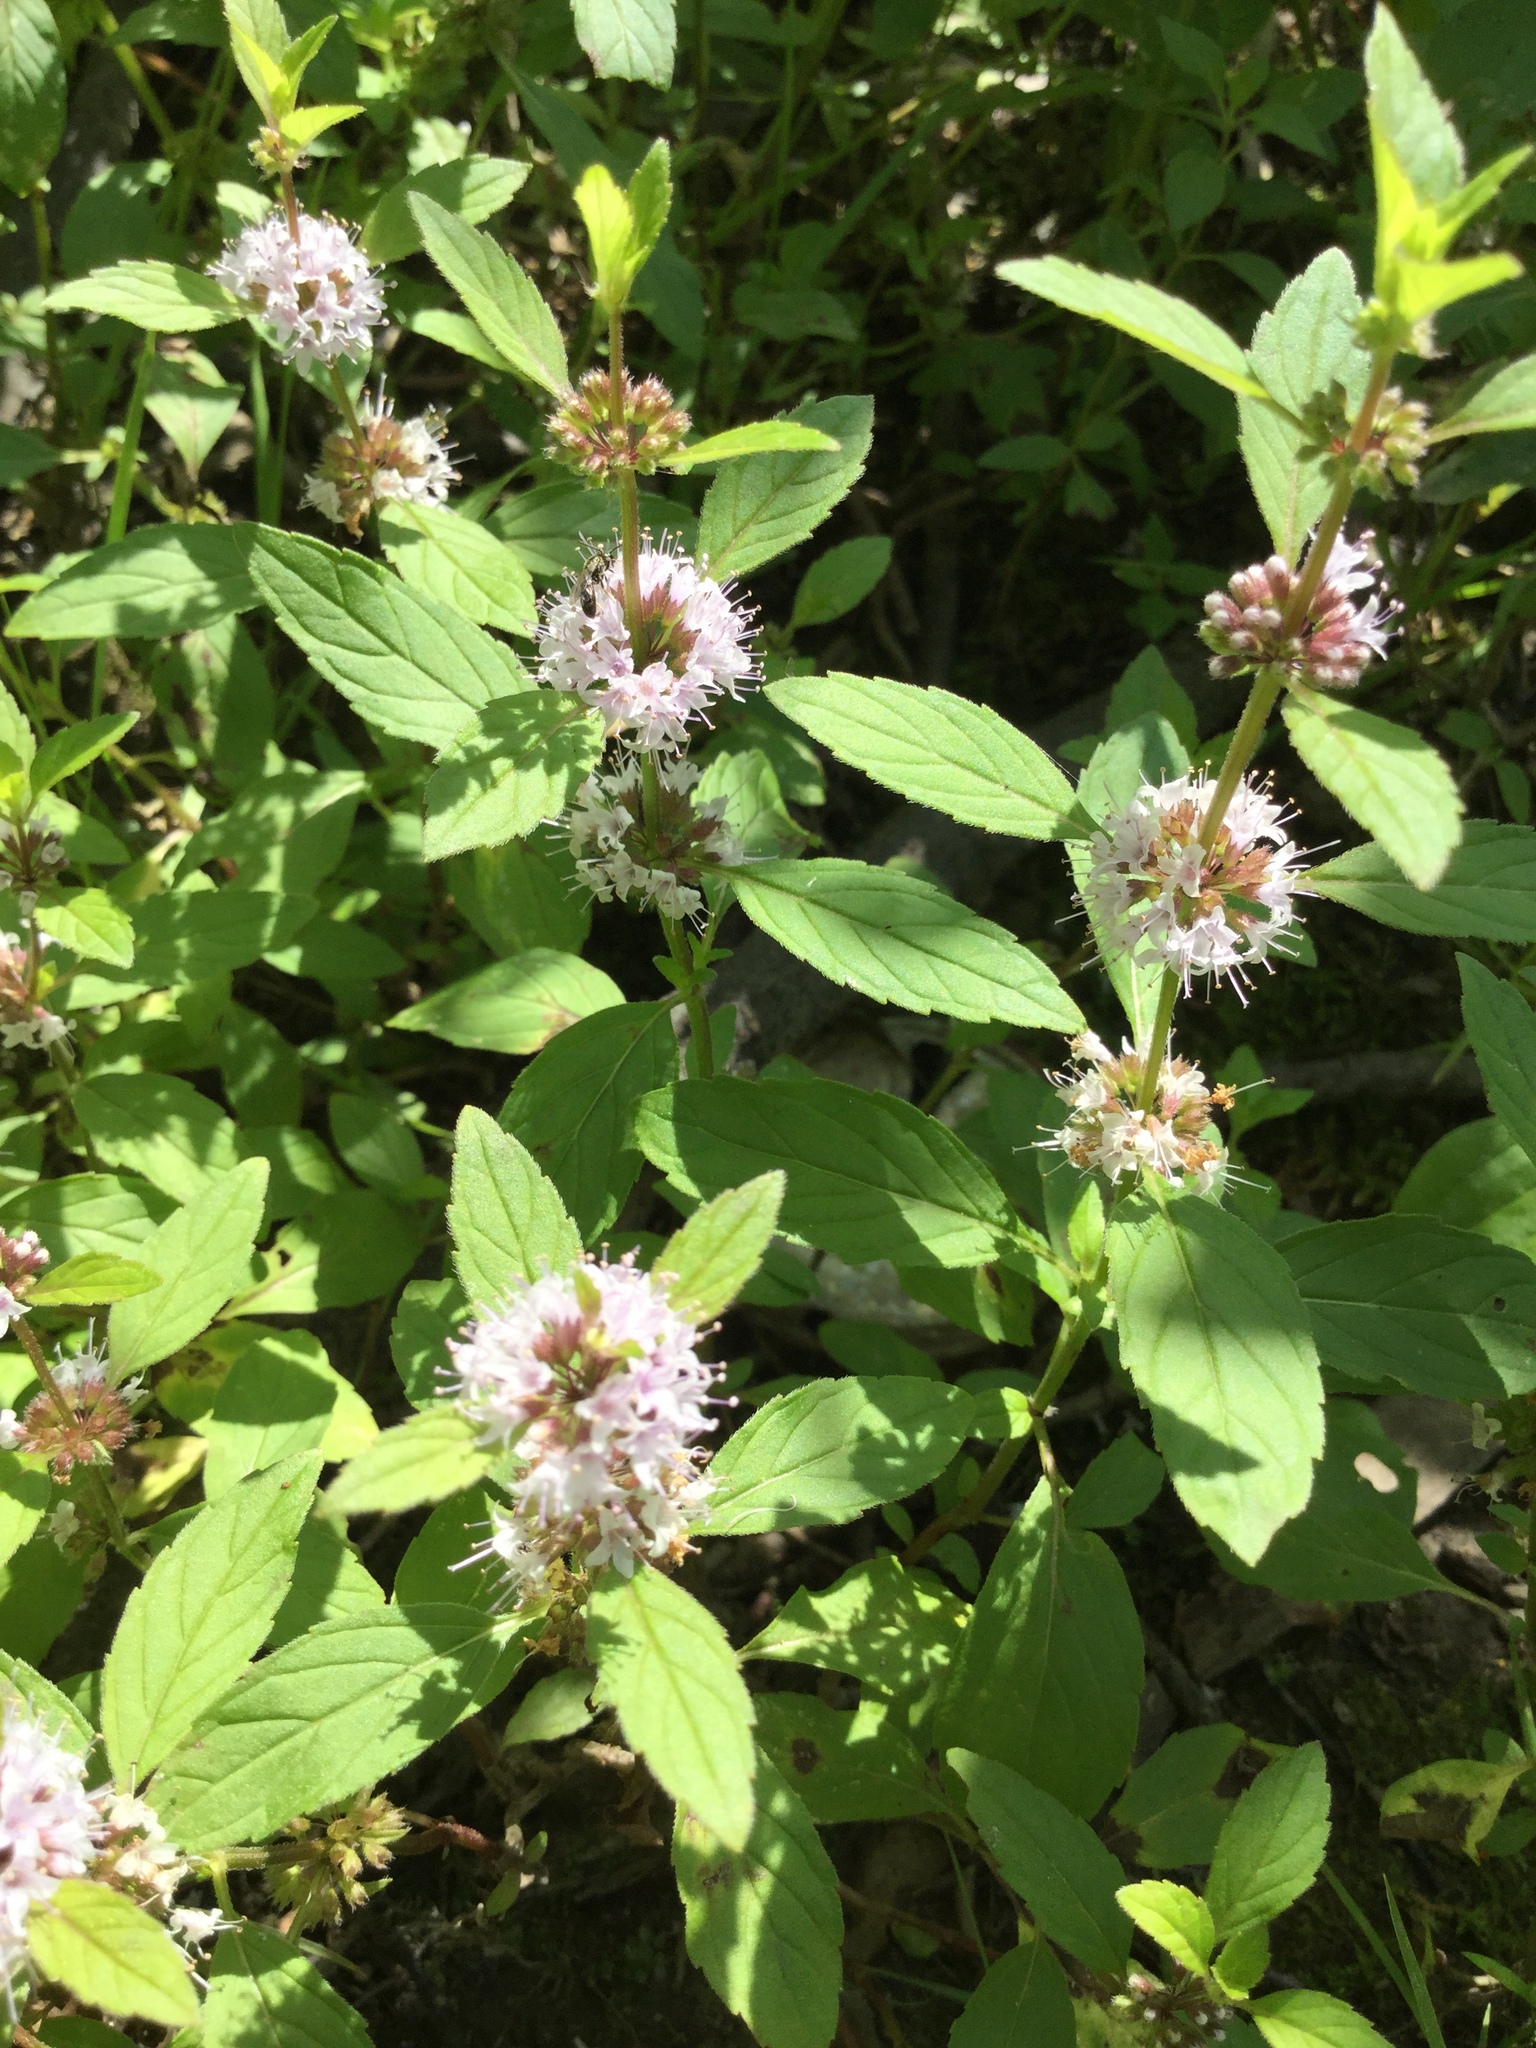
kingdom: Plantae
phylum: Tracheophyta
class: Magnoliopsida
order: Lamiales
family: Lamiaceae
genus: Mentha
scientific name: Mentha canadensis
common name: American corn mint
